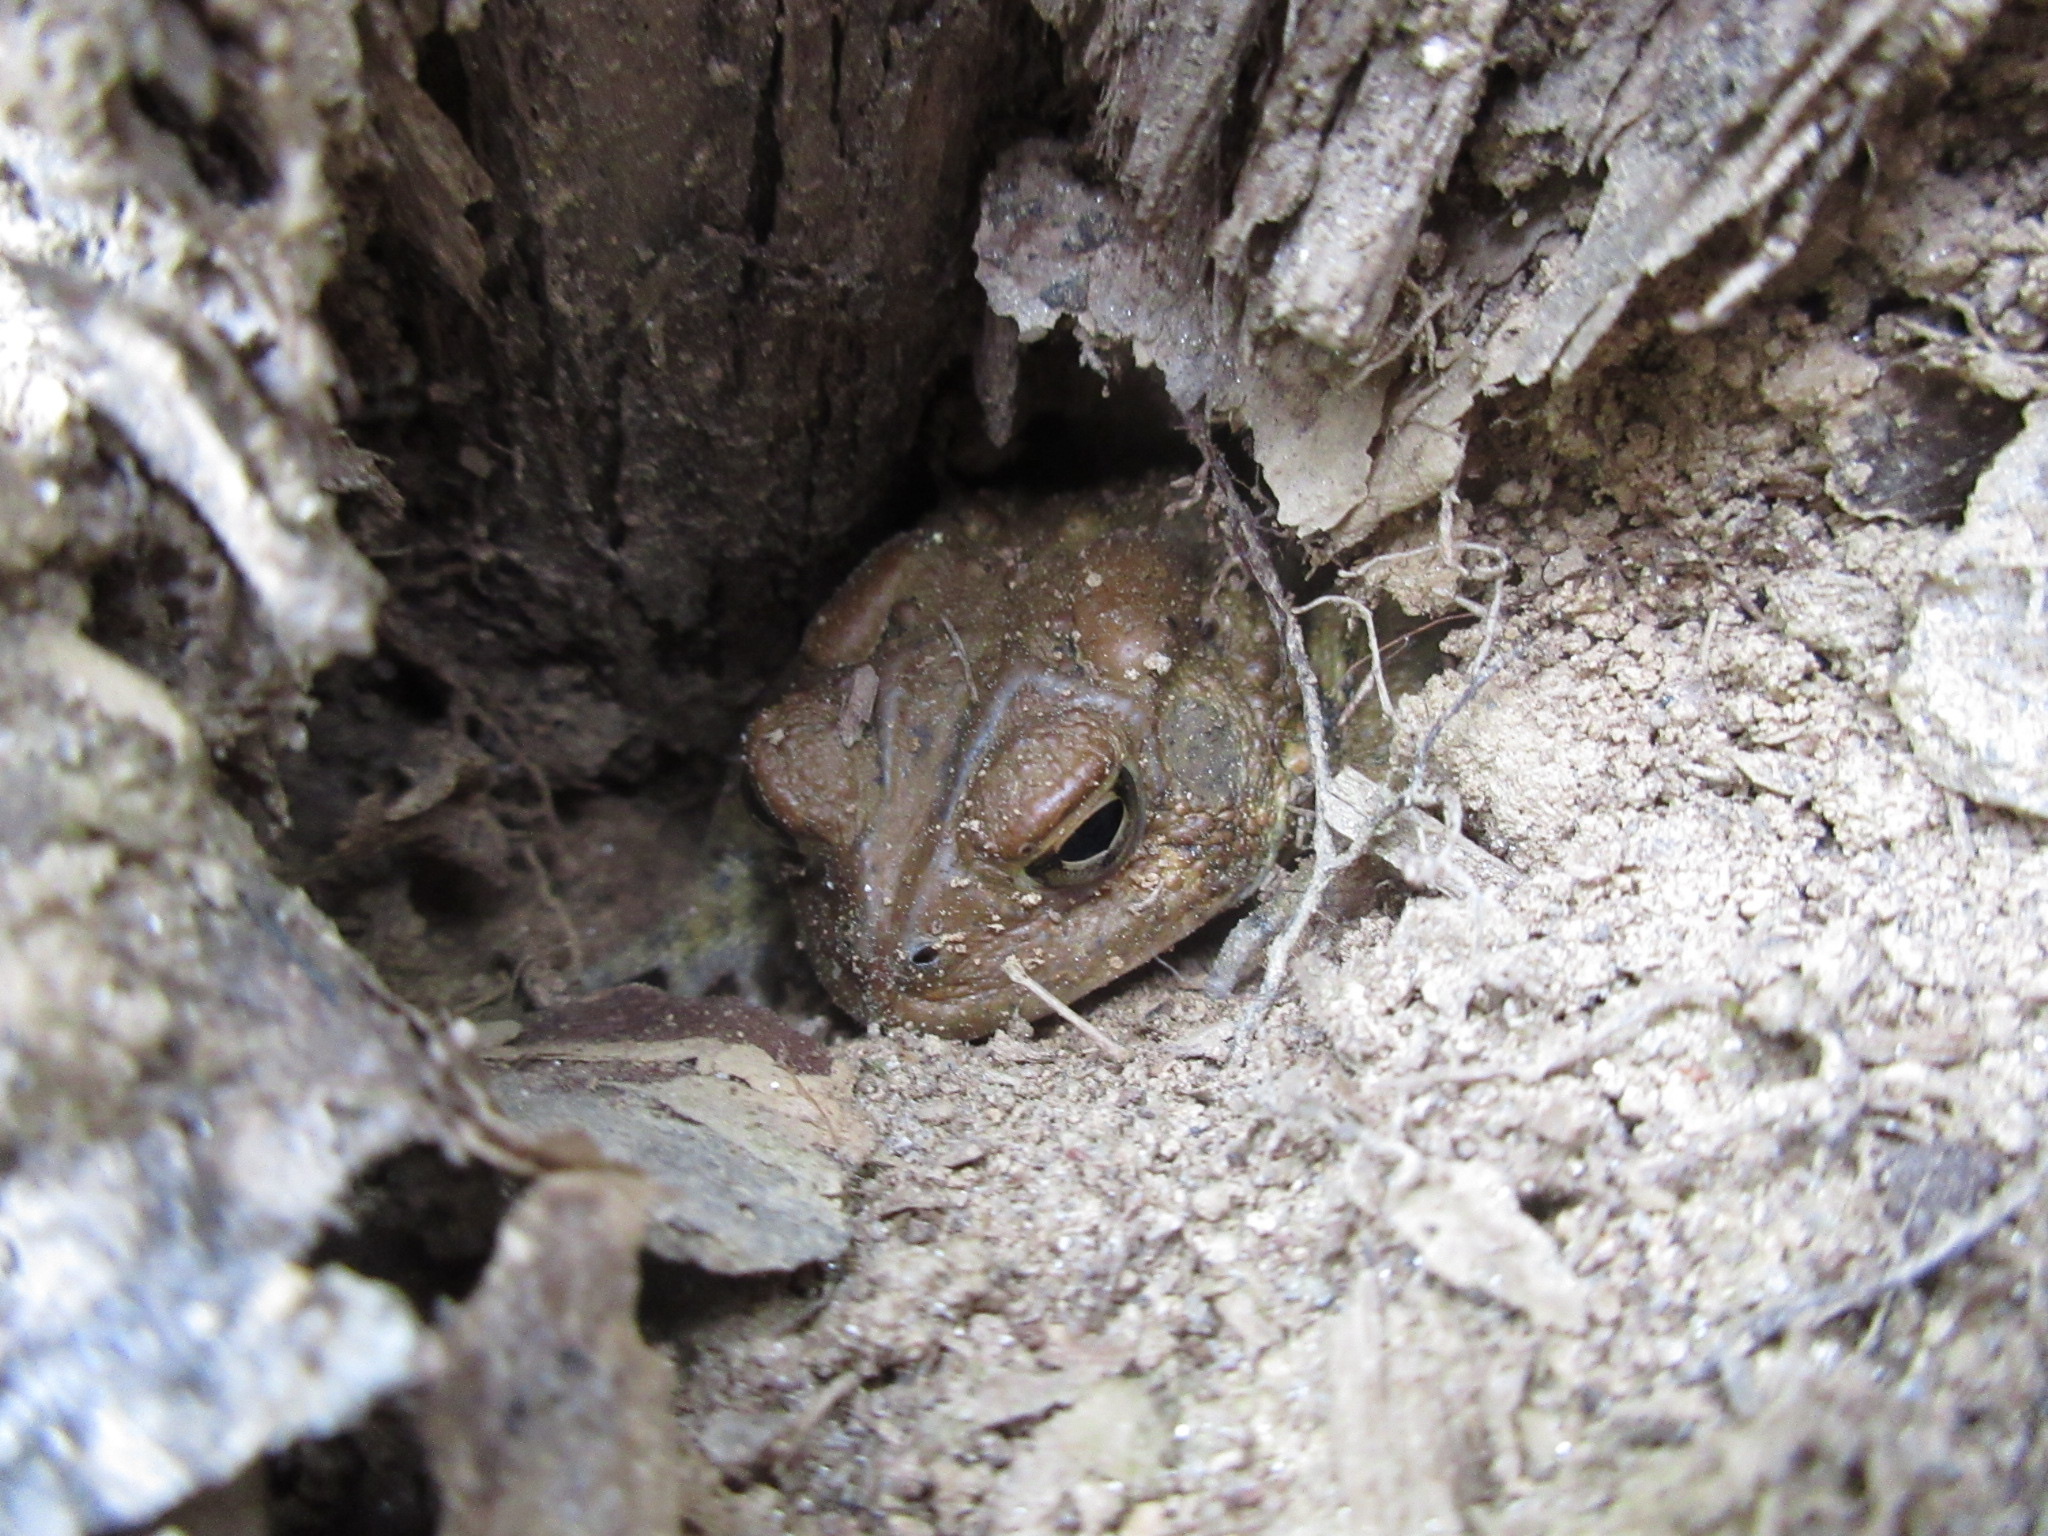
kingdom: Animalia
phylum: Chordata
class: Amphibia
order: Anura
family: Bufonidae
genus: Anaxyrus
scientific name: Anaxyrus americanus
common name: American toad
